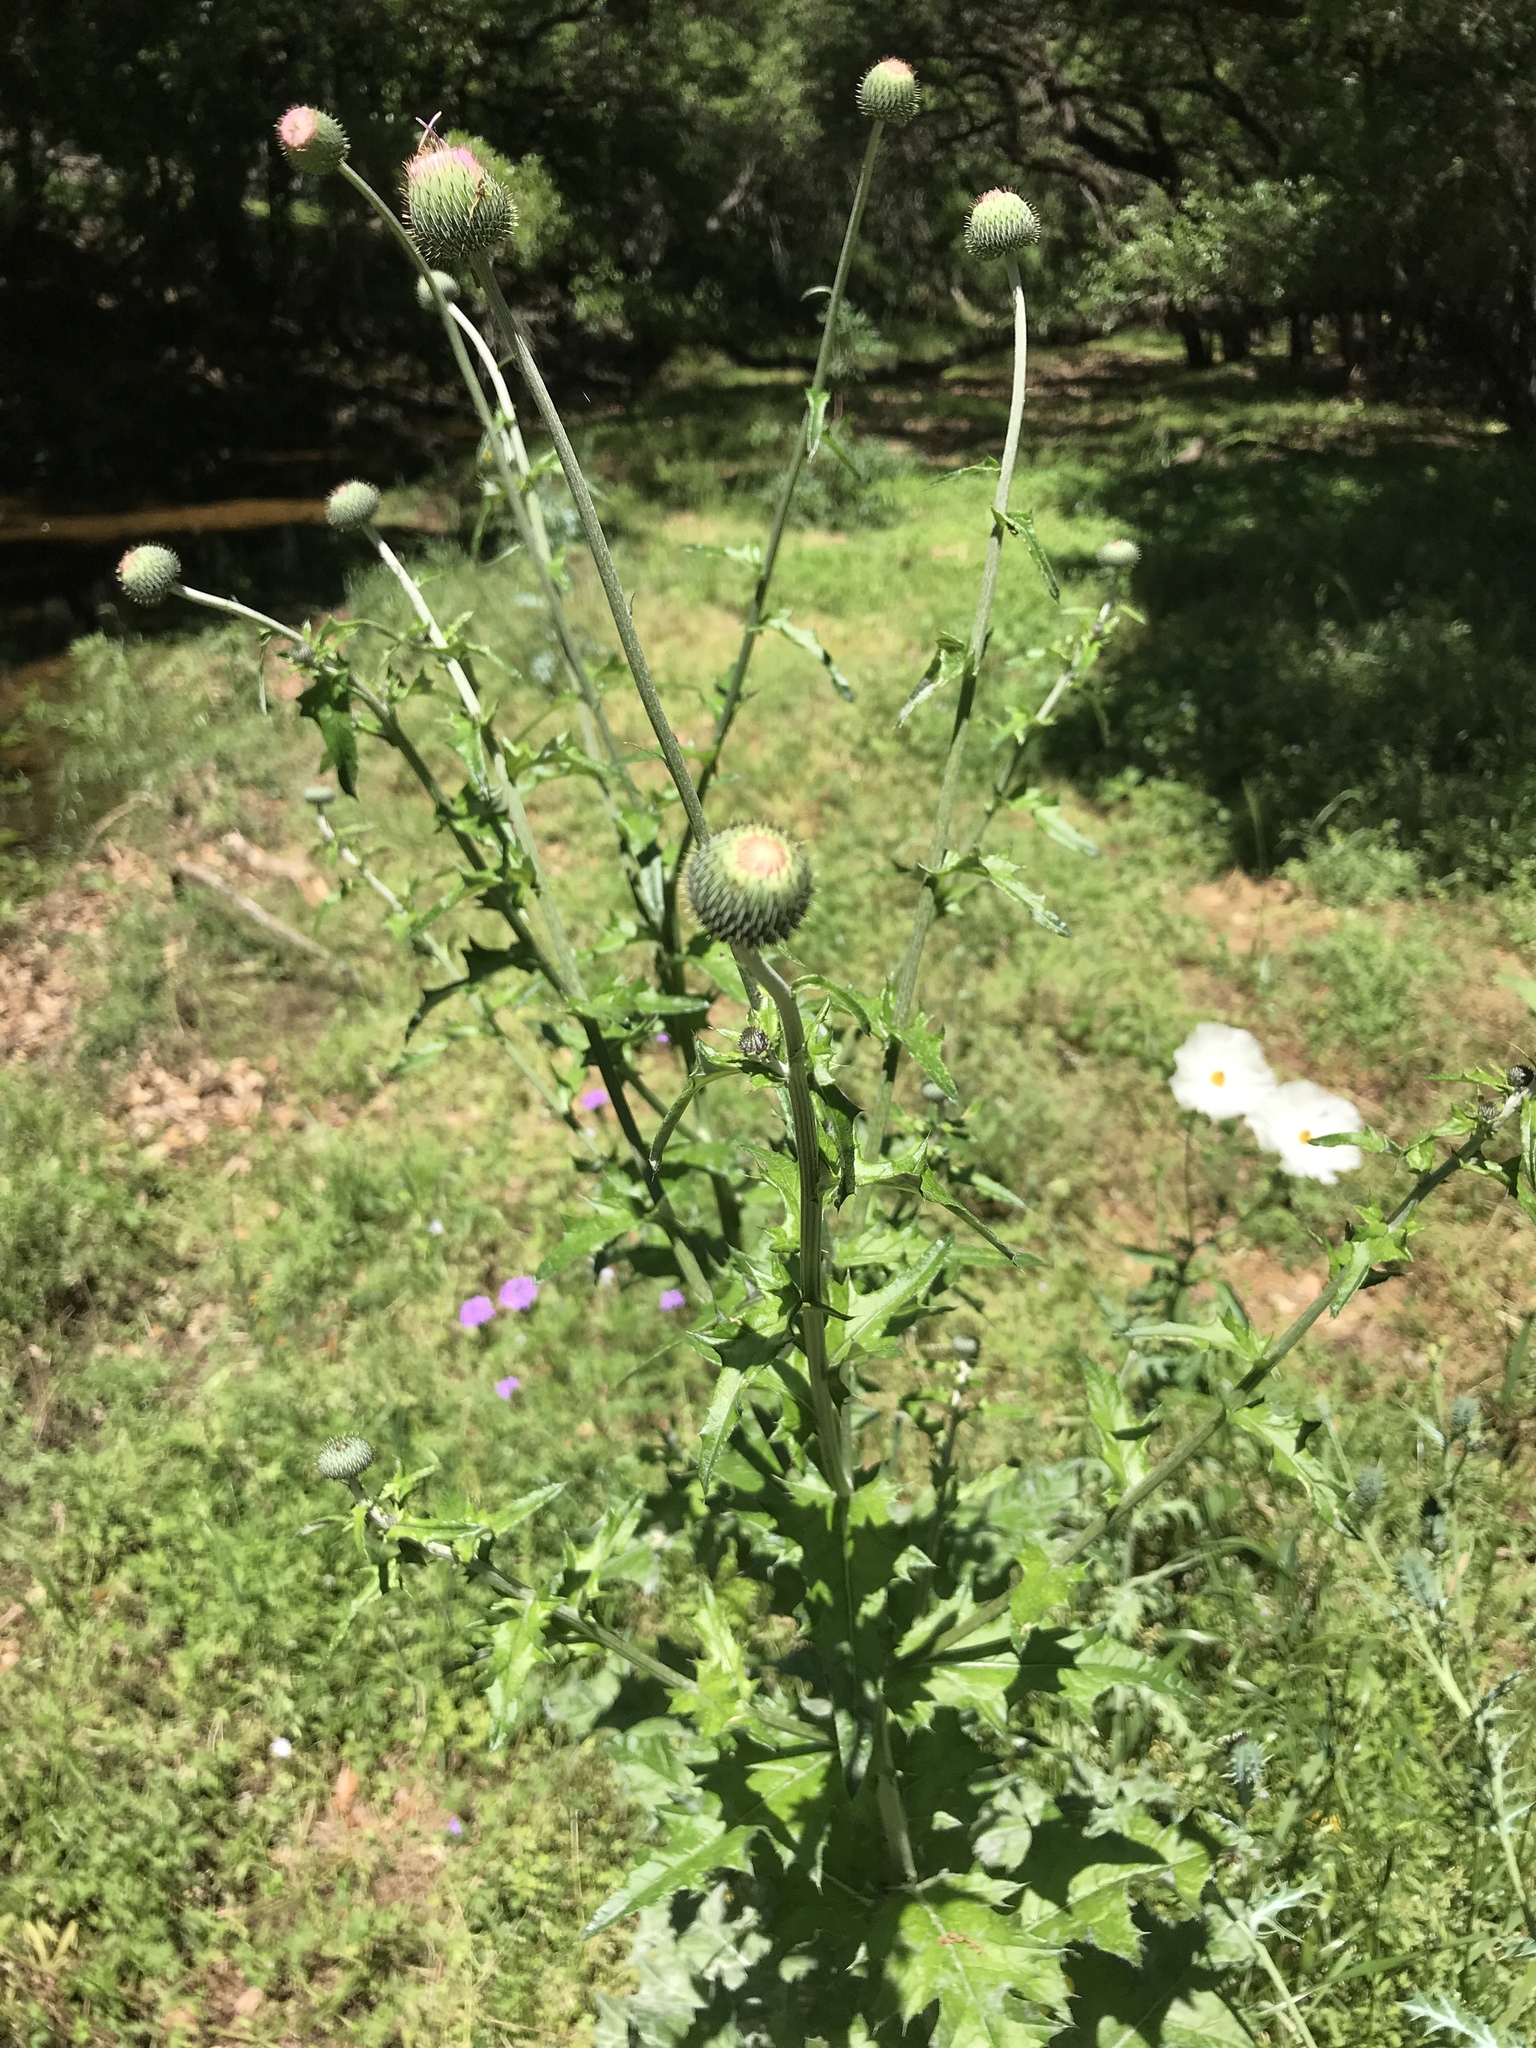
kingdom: Plantae
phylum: Tracheophyta
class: Magnoliopsida
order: Asterales
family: Asteraceae
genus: Cirsium
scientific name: Cirsium texanum
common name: Texas purple thistle
